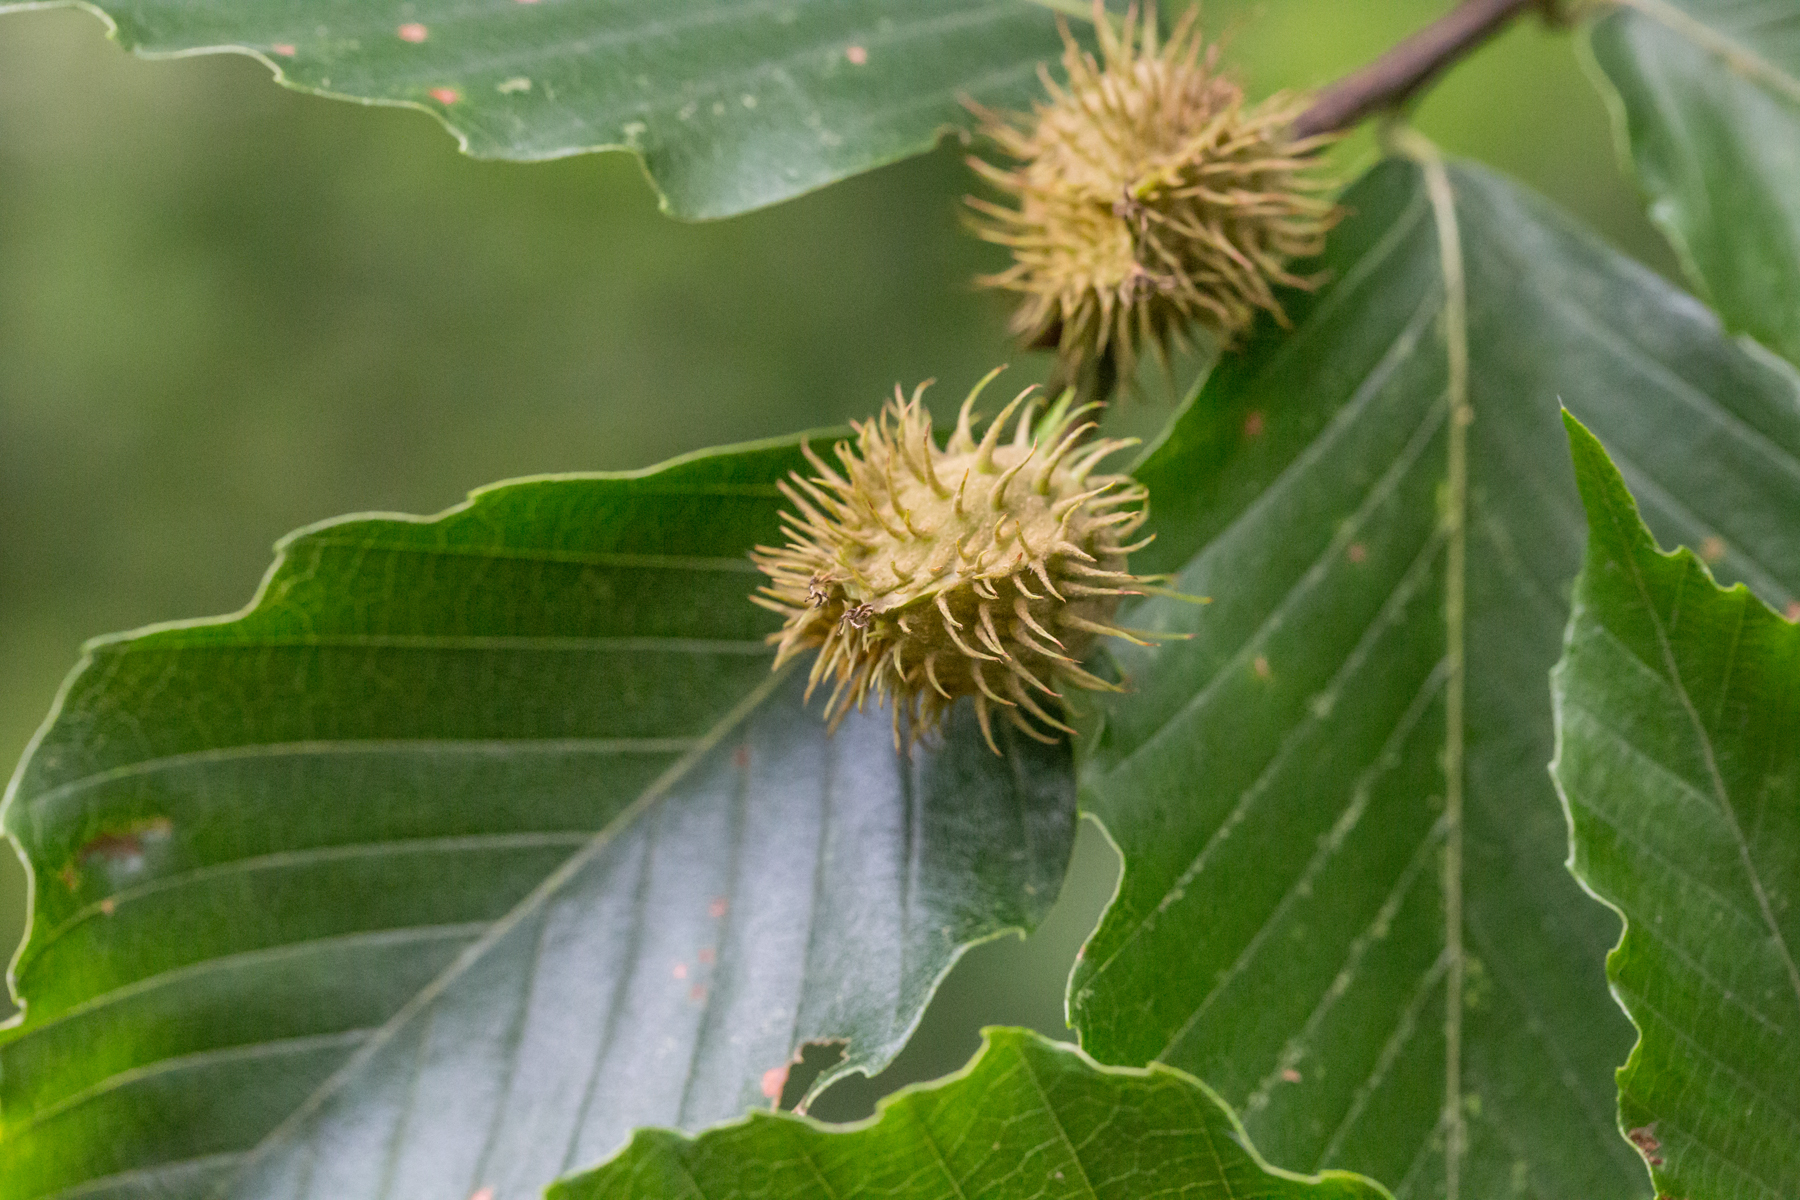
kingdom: Plantae
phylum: Tracheophyta
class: Magnoliopsida
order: Fagales
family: Fagaceae
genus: Fagus
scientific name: Fagus grandifolia
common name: American beech
